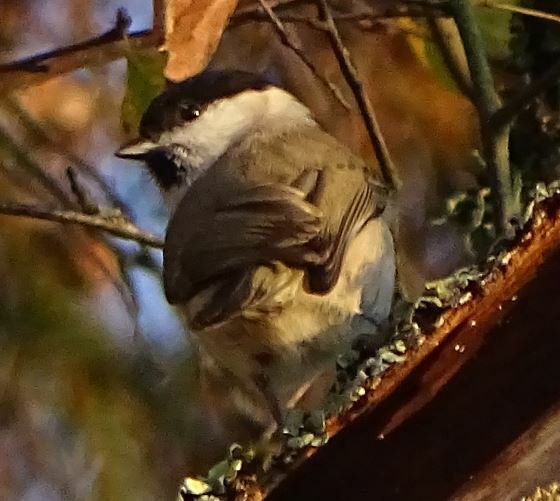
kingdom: Animalia
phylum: Chordata
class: Aves
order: Passeriformes
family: Paridae
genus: Poecile
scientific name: Poecile palustris
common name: Marsh tit
